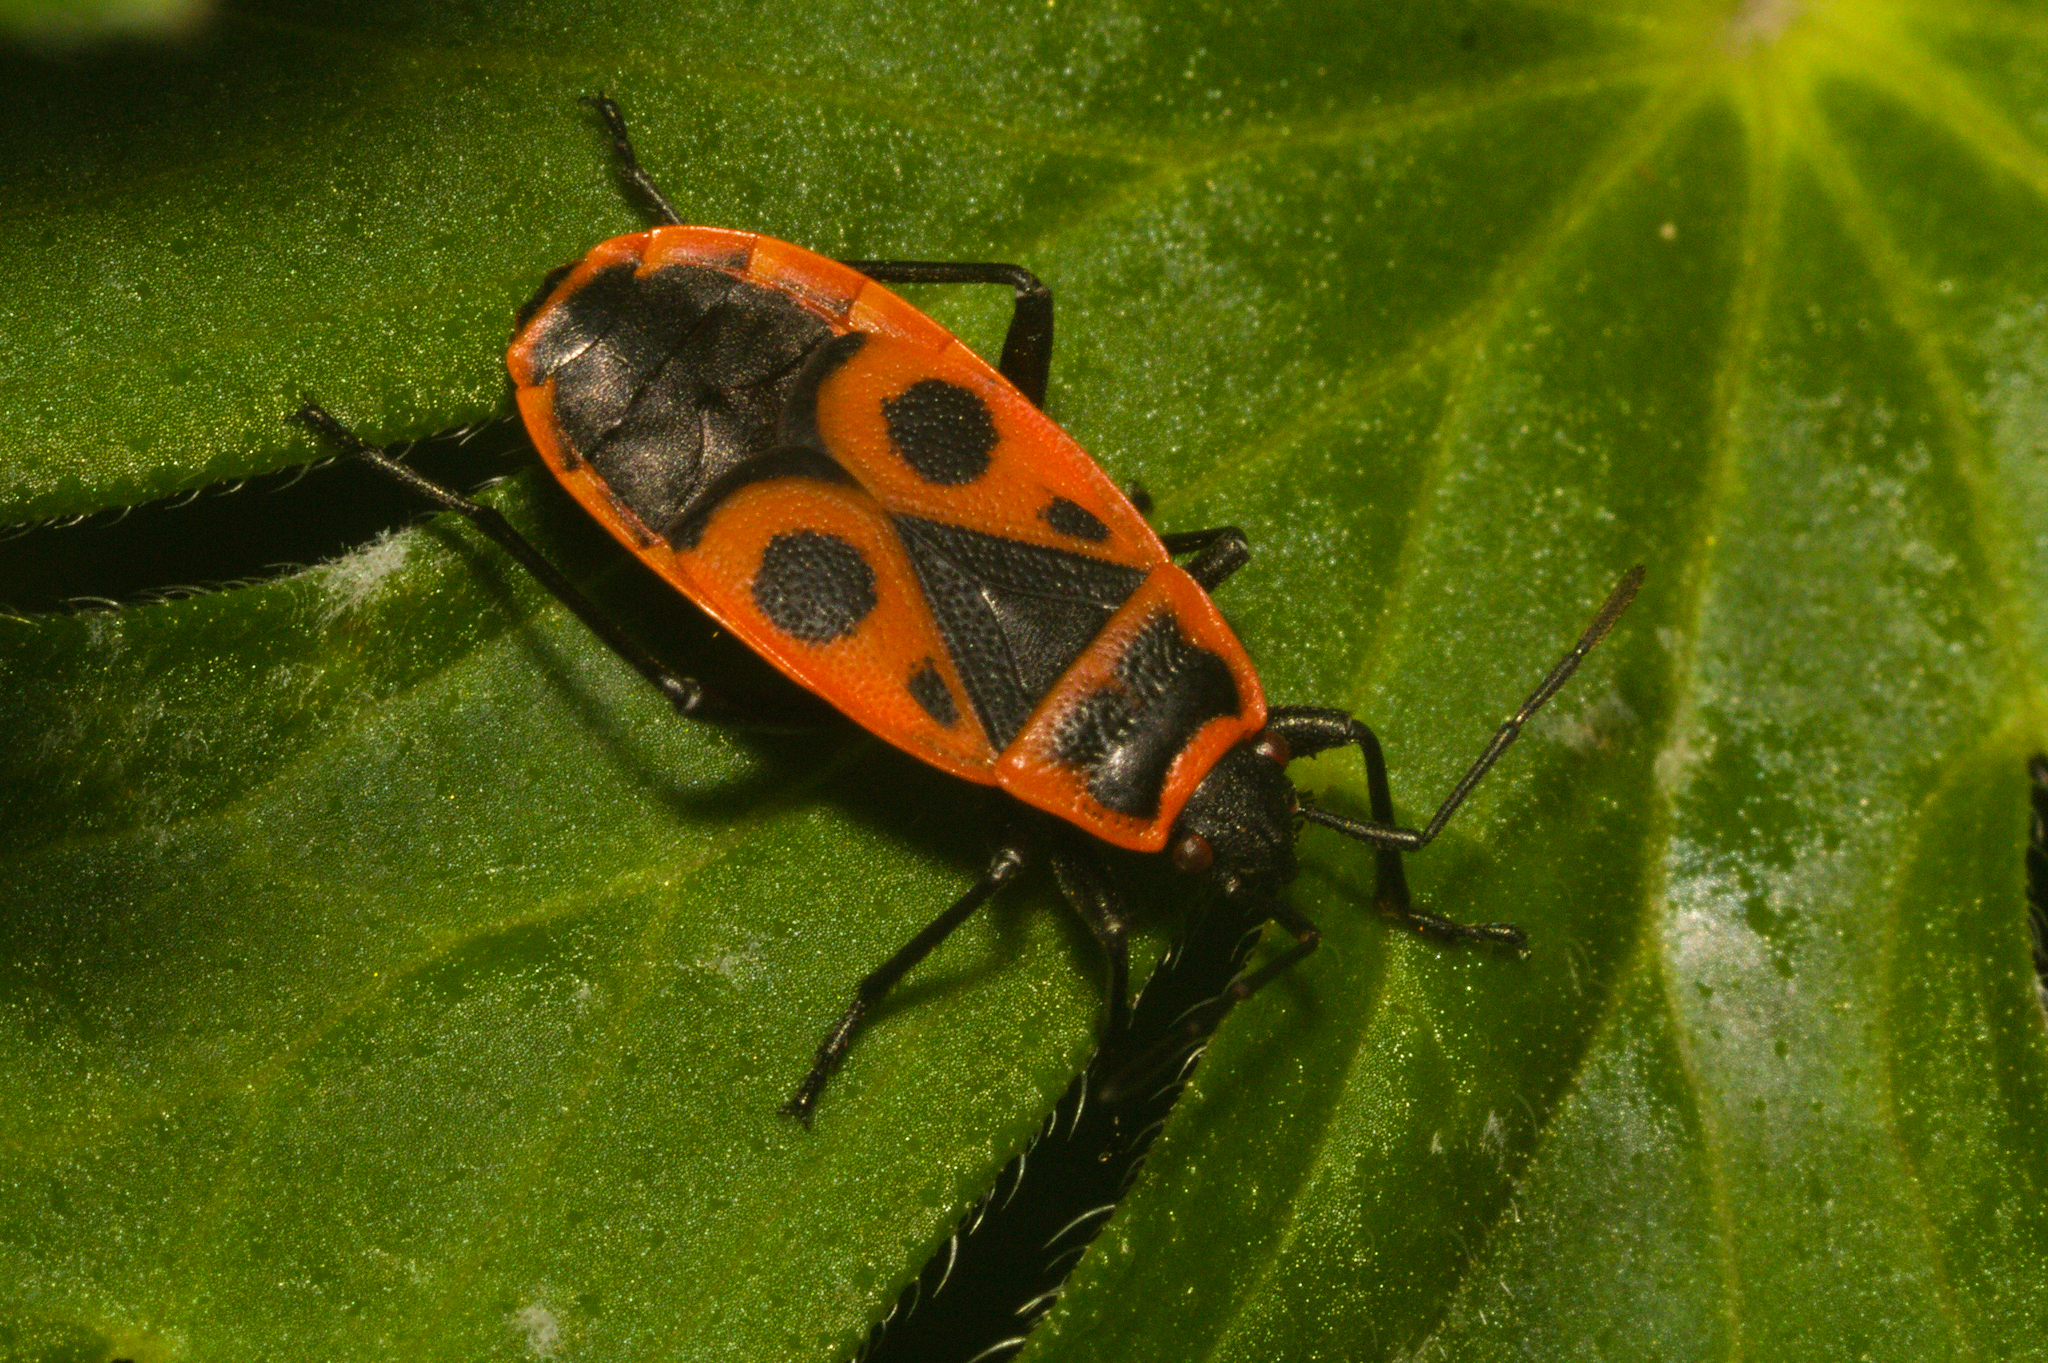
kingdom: Animalia
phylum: Arthropoda
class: Insecta
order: Hemiptera
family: Pyrrhocoridae
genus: Pyrrhocoris
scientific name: Pyrrhocoris apterus
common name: Firebug
